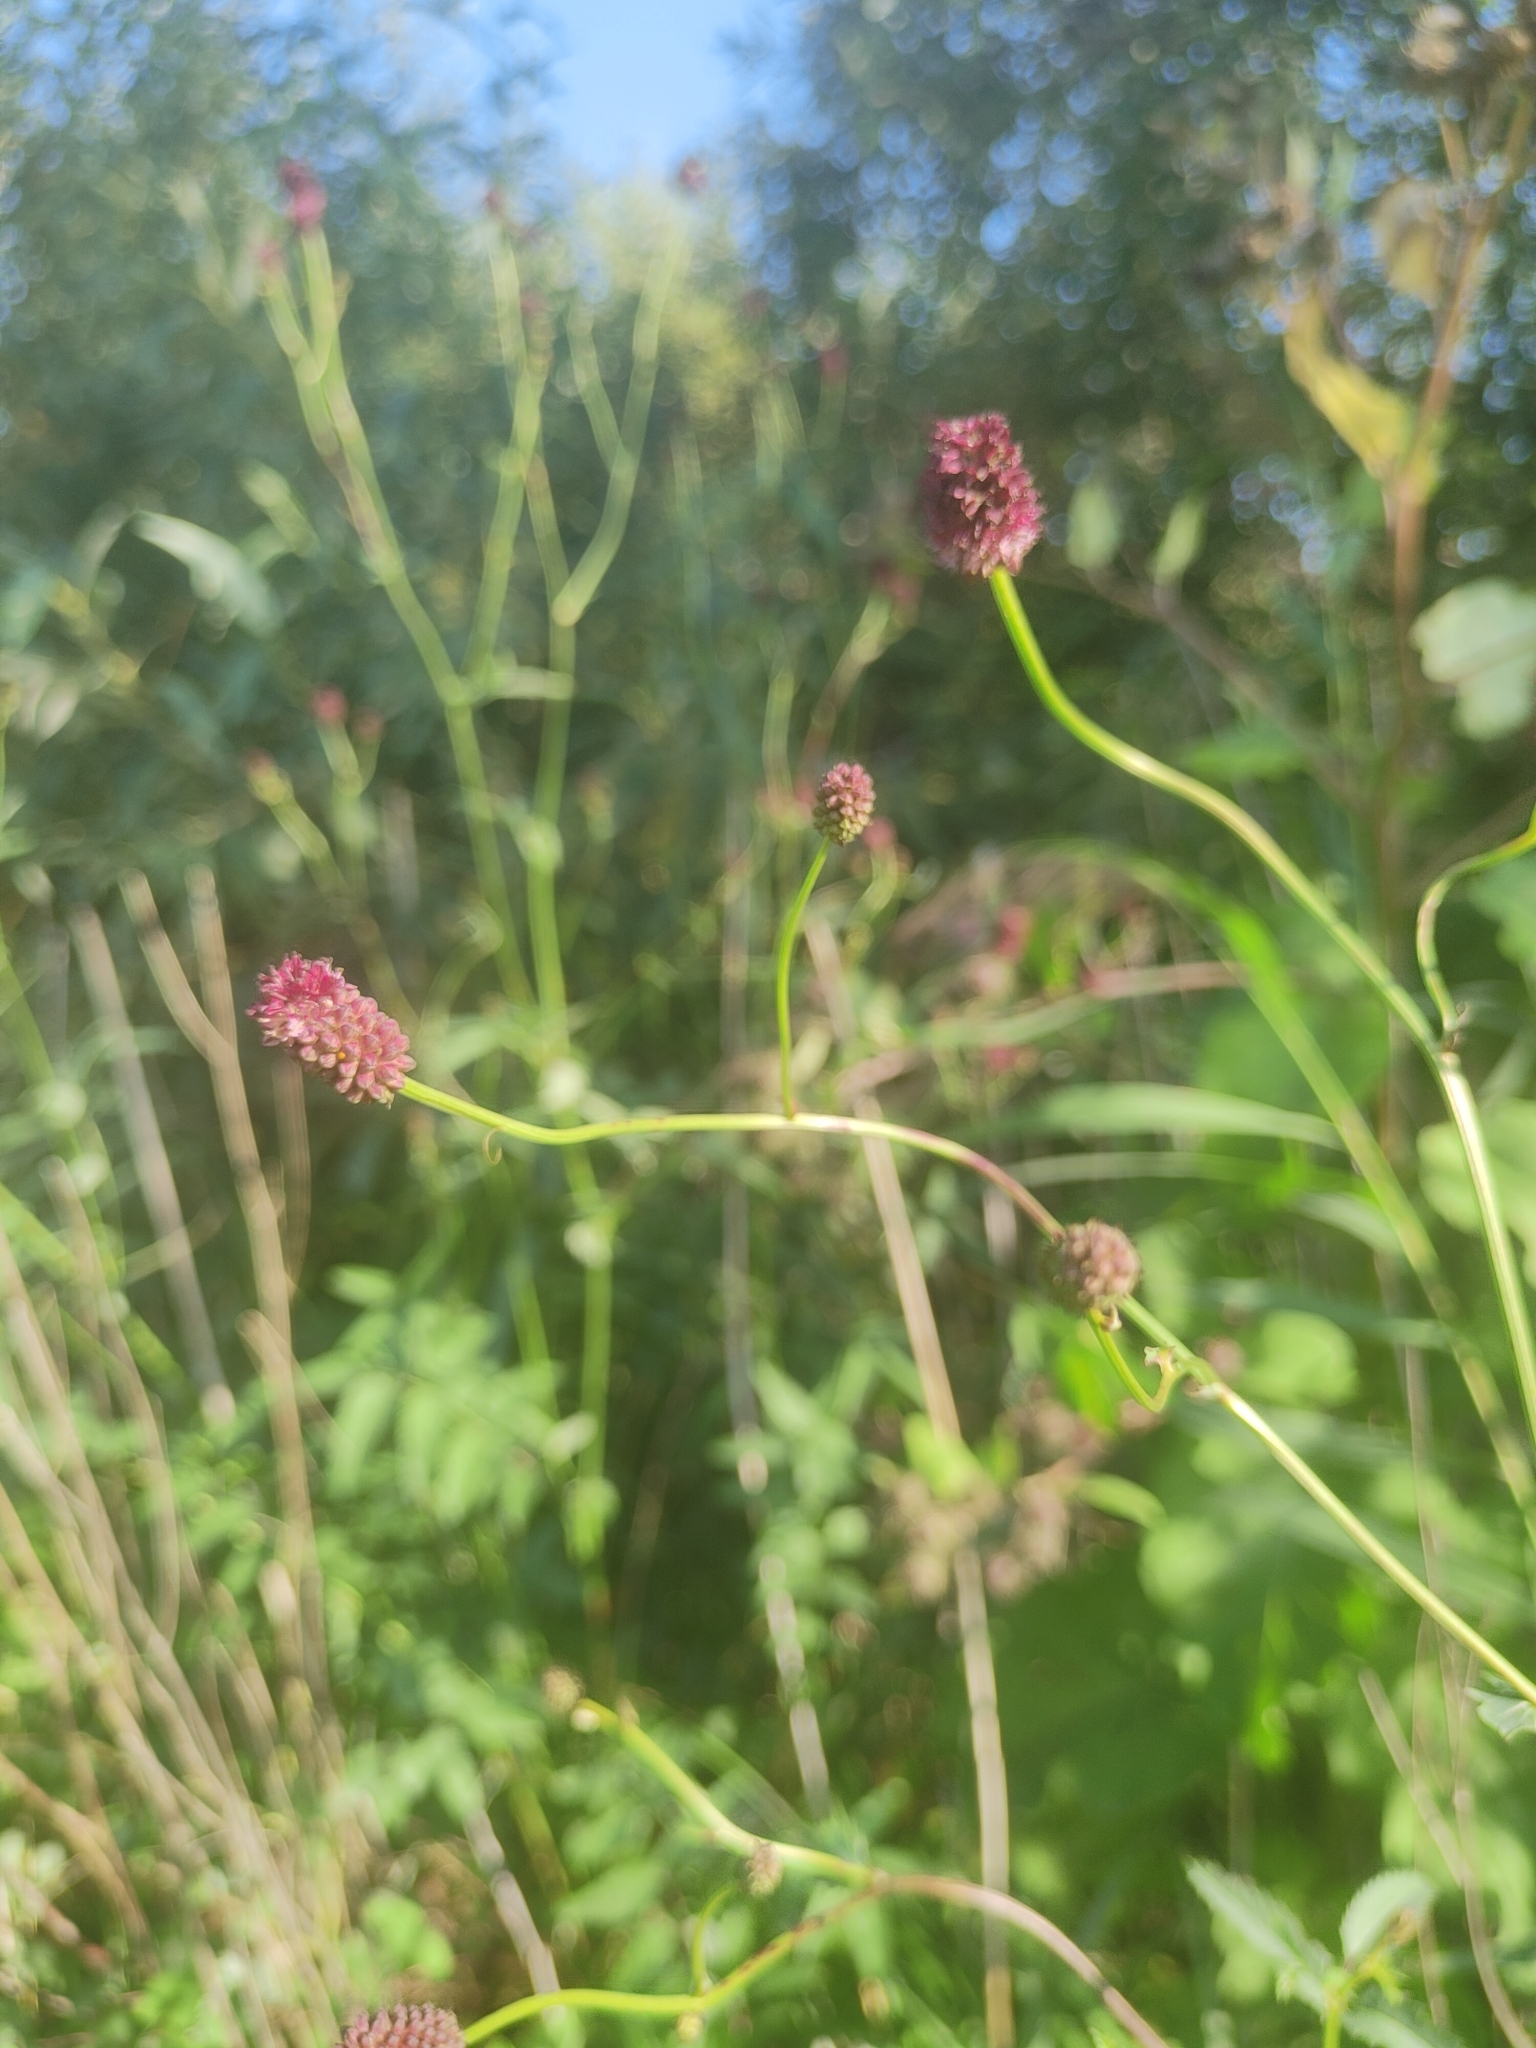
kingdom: Plantae
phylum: Tracheophyta
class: Magnoliopsida
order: Rosales
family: Rosaceae
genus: Sanguisorba
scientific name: Sanguisorba officinalis
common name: Great burnet
